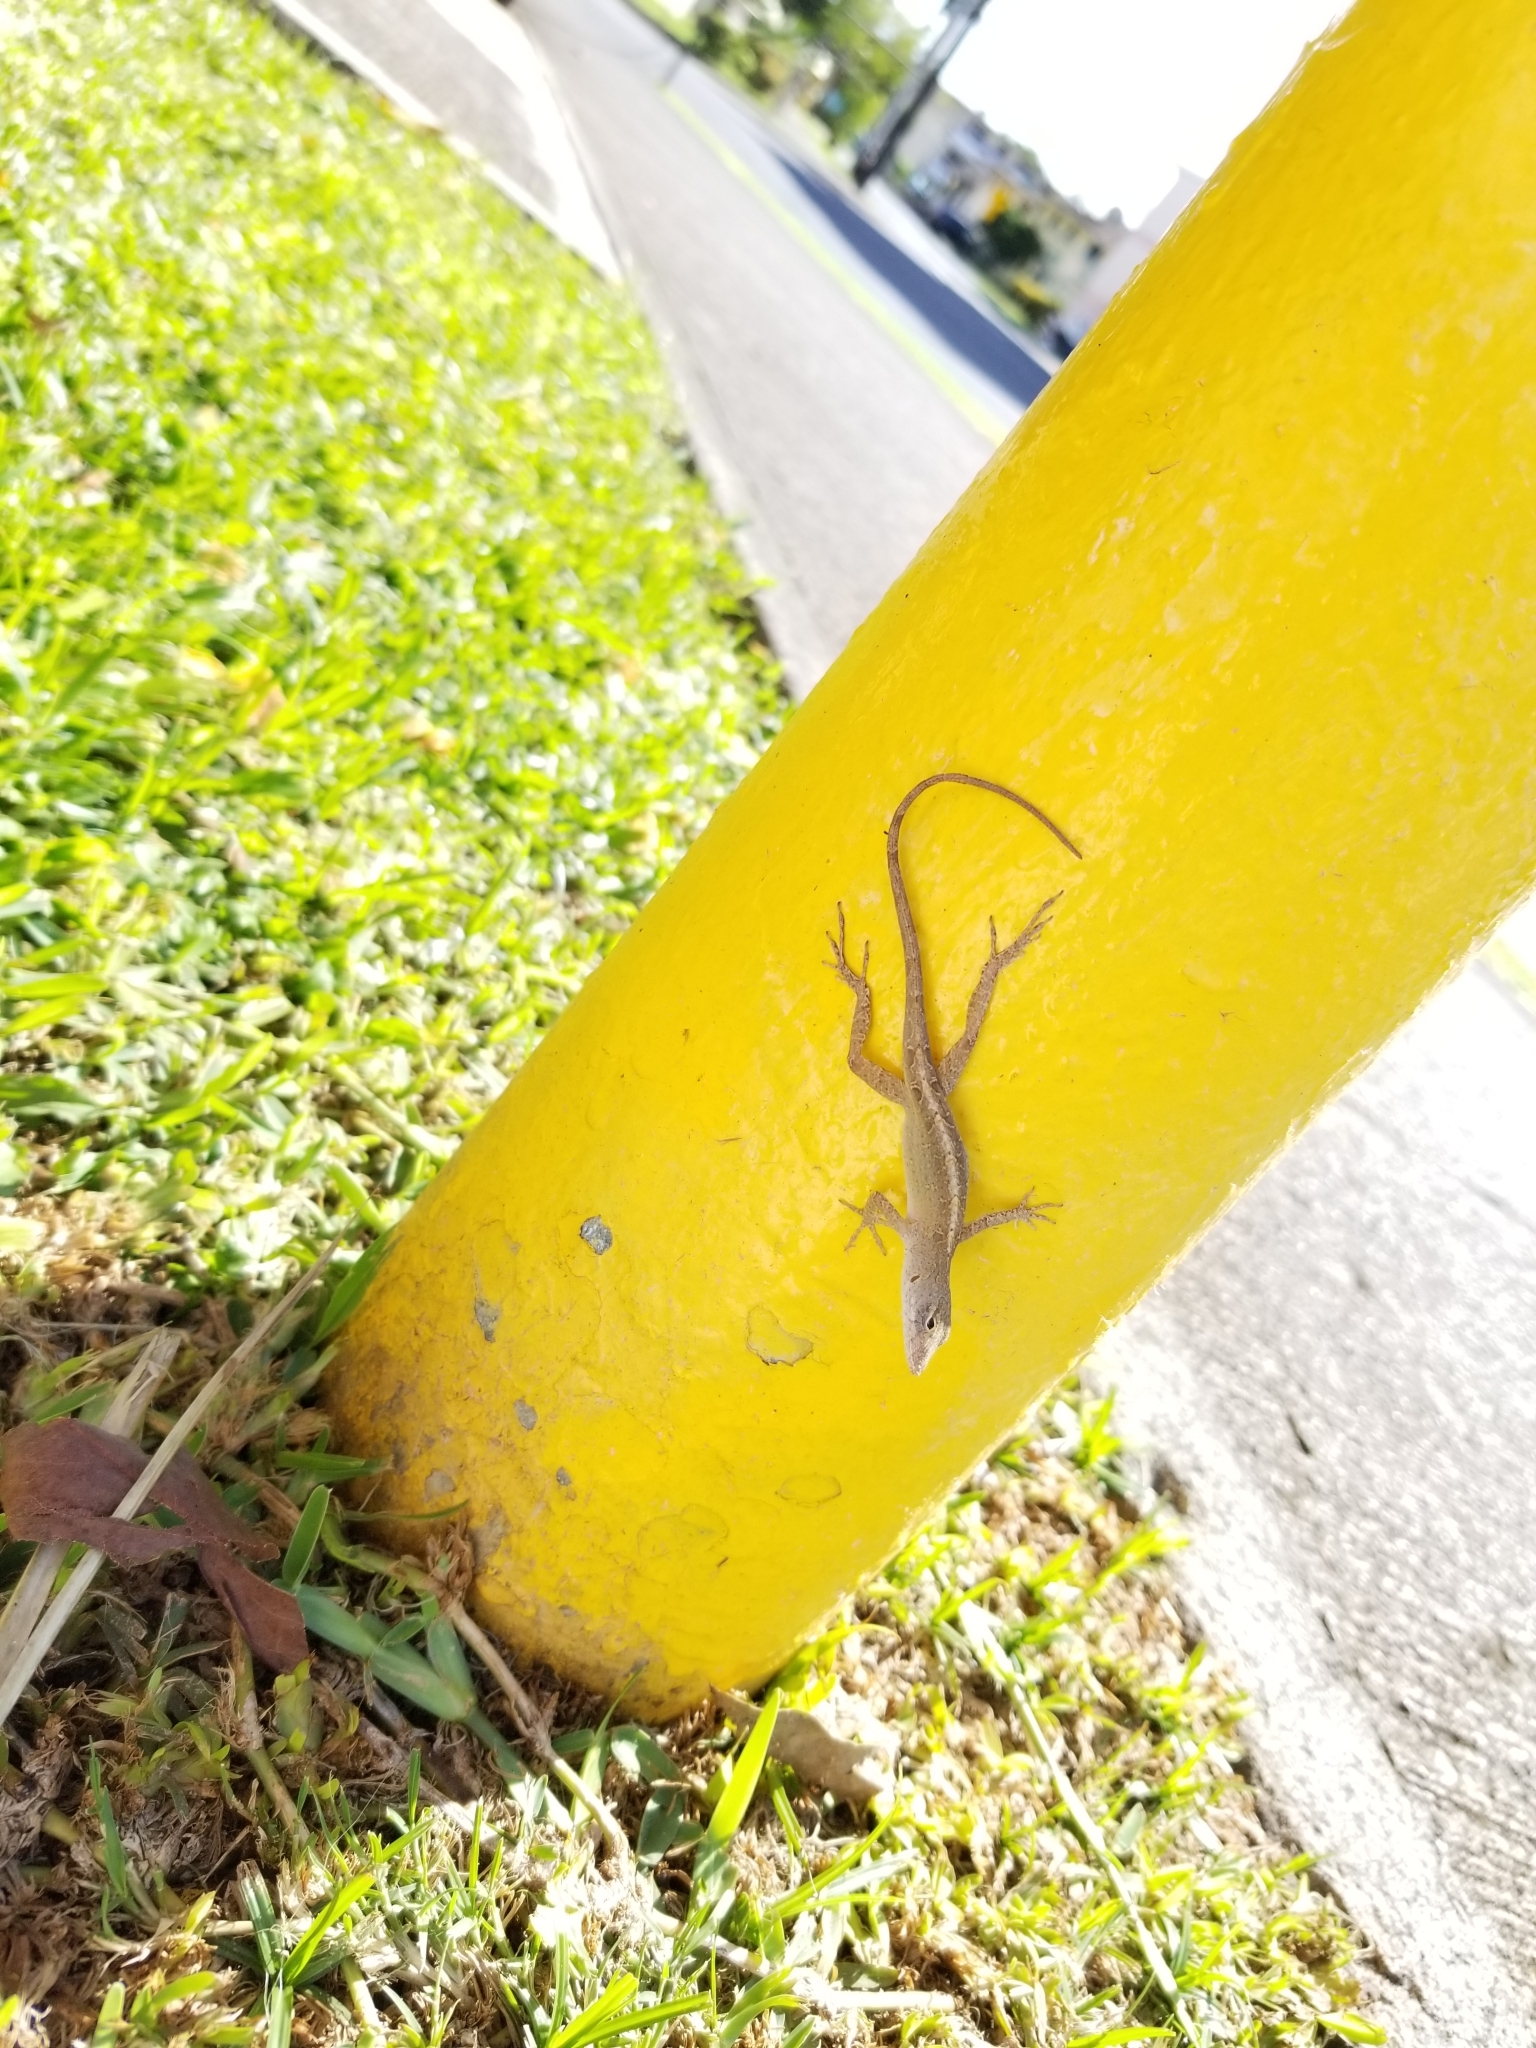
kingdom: Animalia
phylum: Chordata
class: Squamata
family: Dactyloidae
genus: Anolis
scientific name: Anolis sagrei
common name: Brown anole
